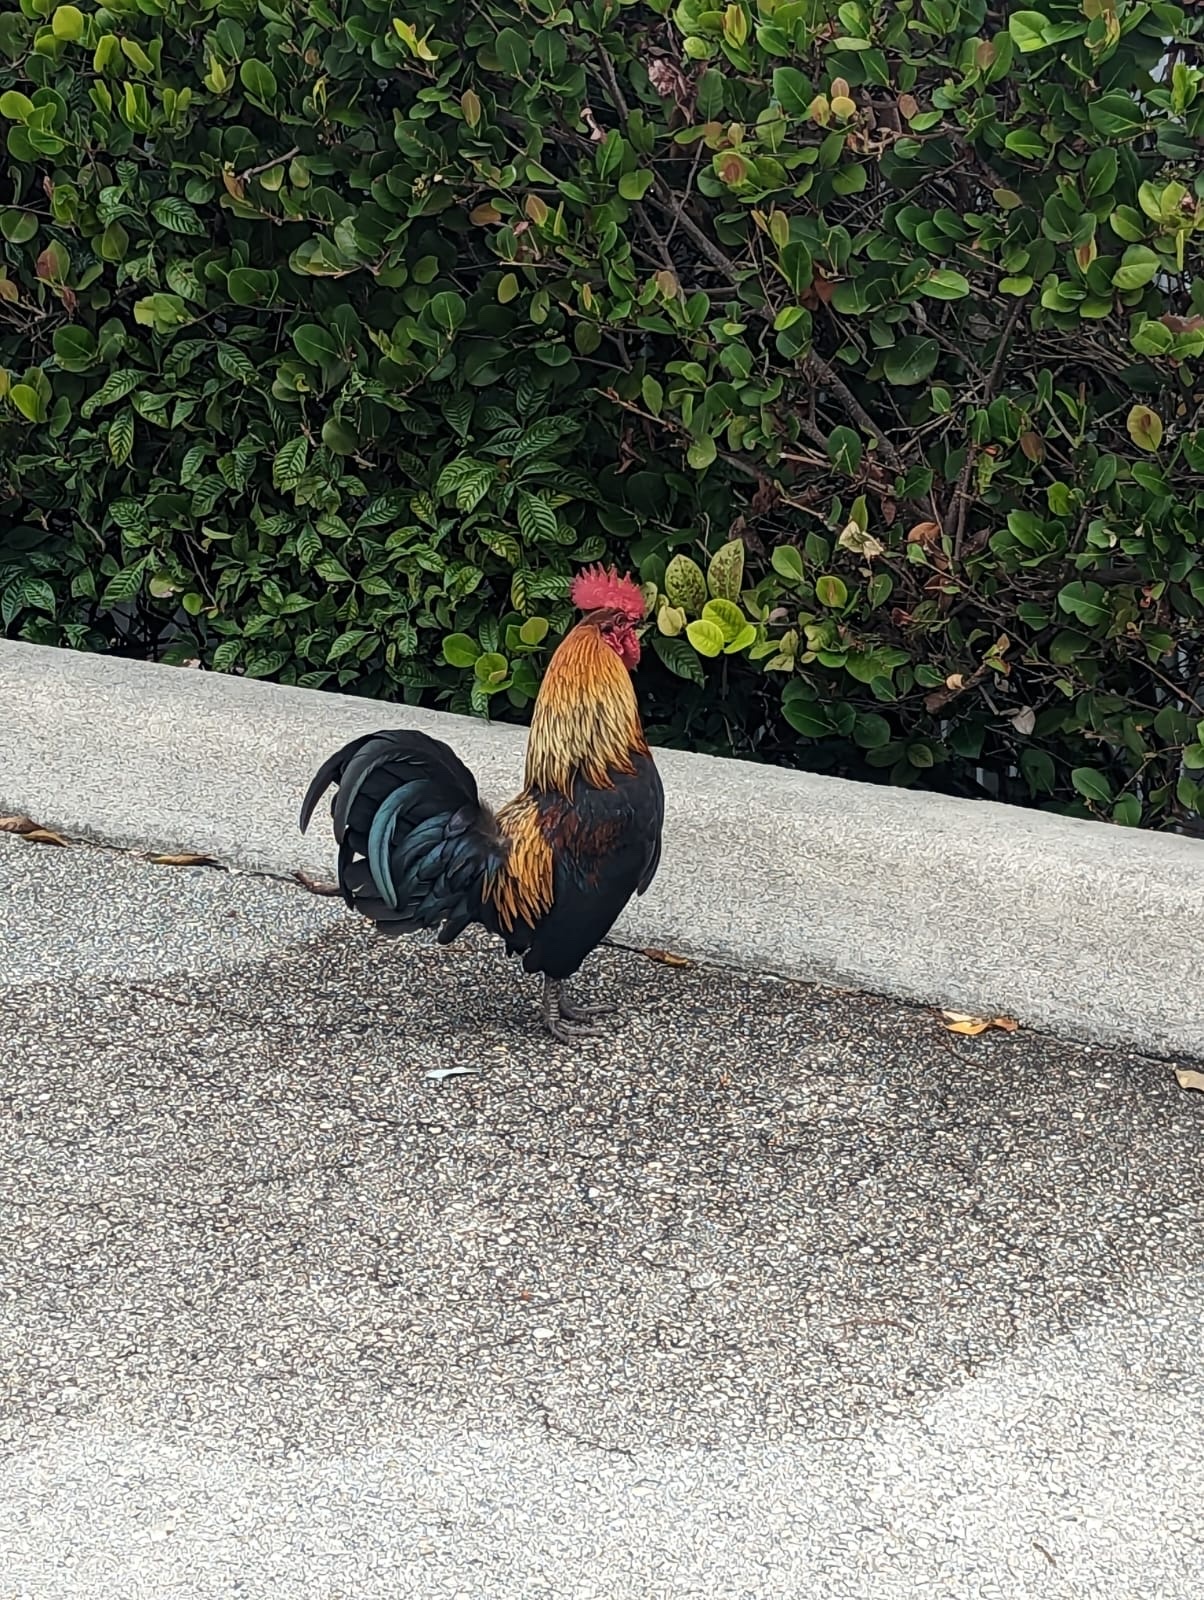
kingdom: Animalia
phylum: Chordata
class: Aves
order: Galliformes
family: Phasianidae
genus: Gallus
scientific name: Gallus gallus
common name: Red junglefowl
